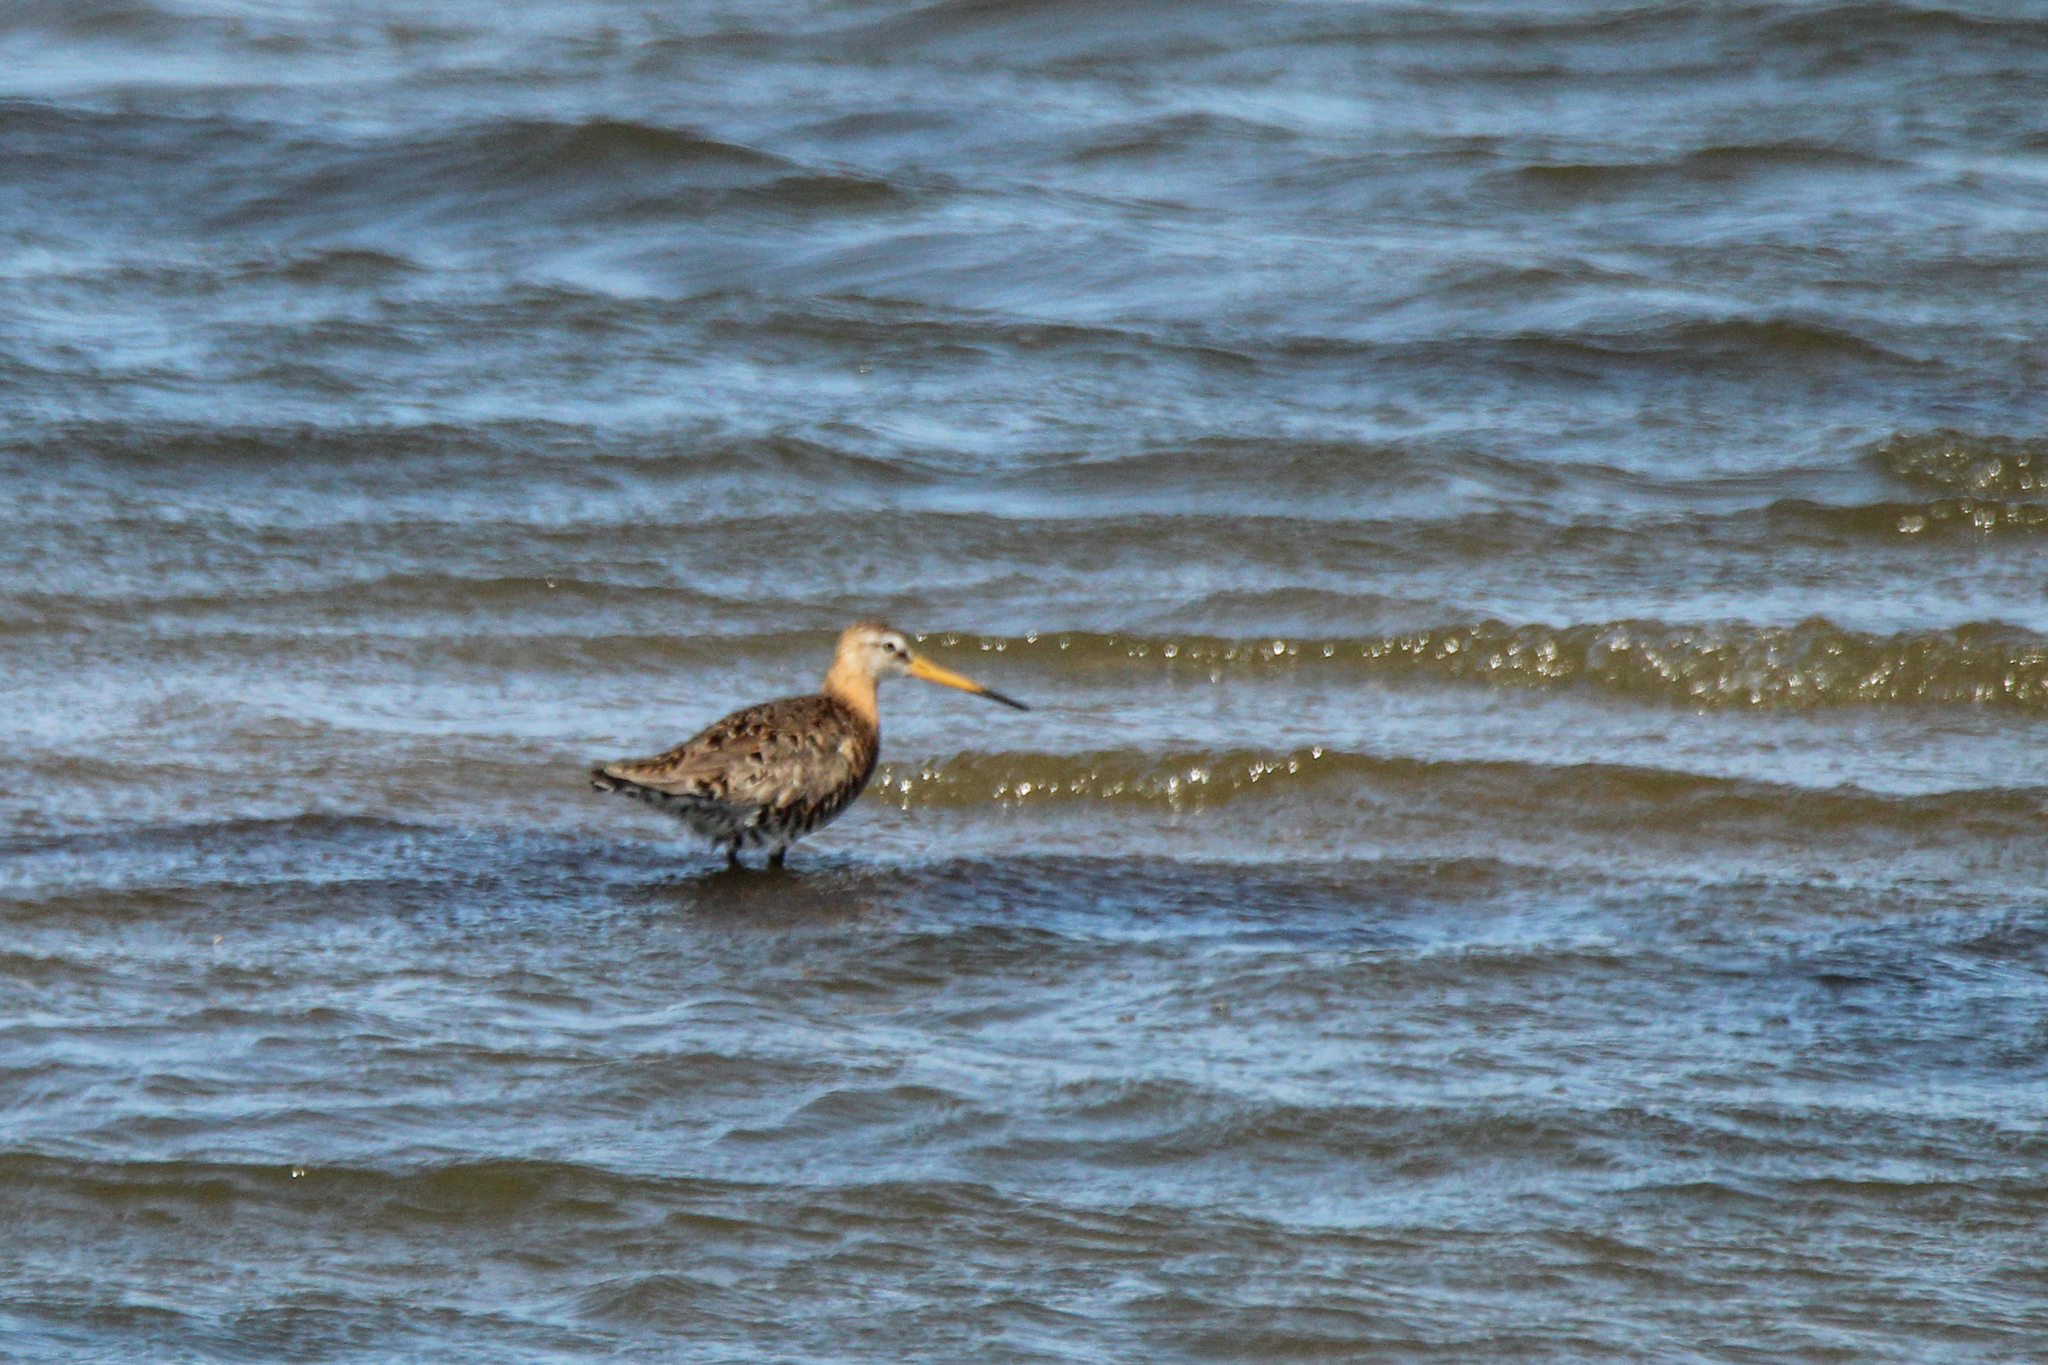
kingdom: Animalia
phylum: Chordata
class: Aves
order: Charadriiformes
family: Scolopacidae
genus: Limosa
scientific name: Limosa limosa
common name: Black-tailed godwit
